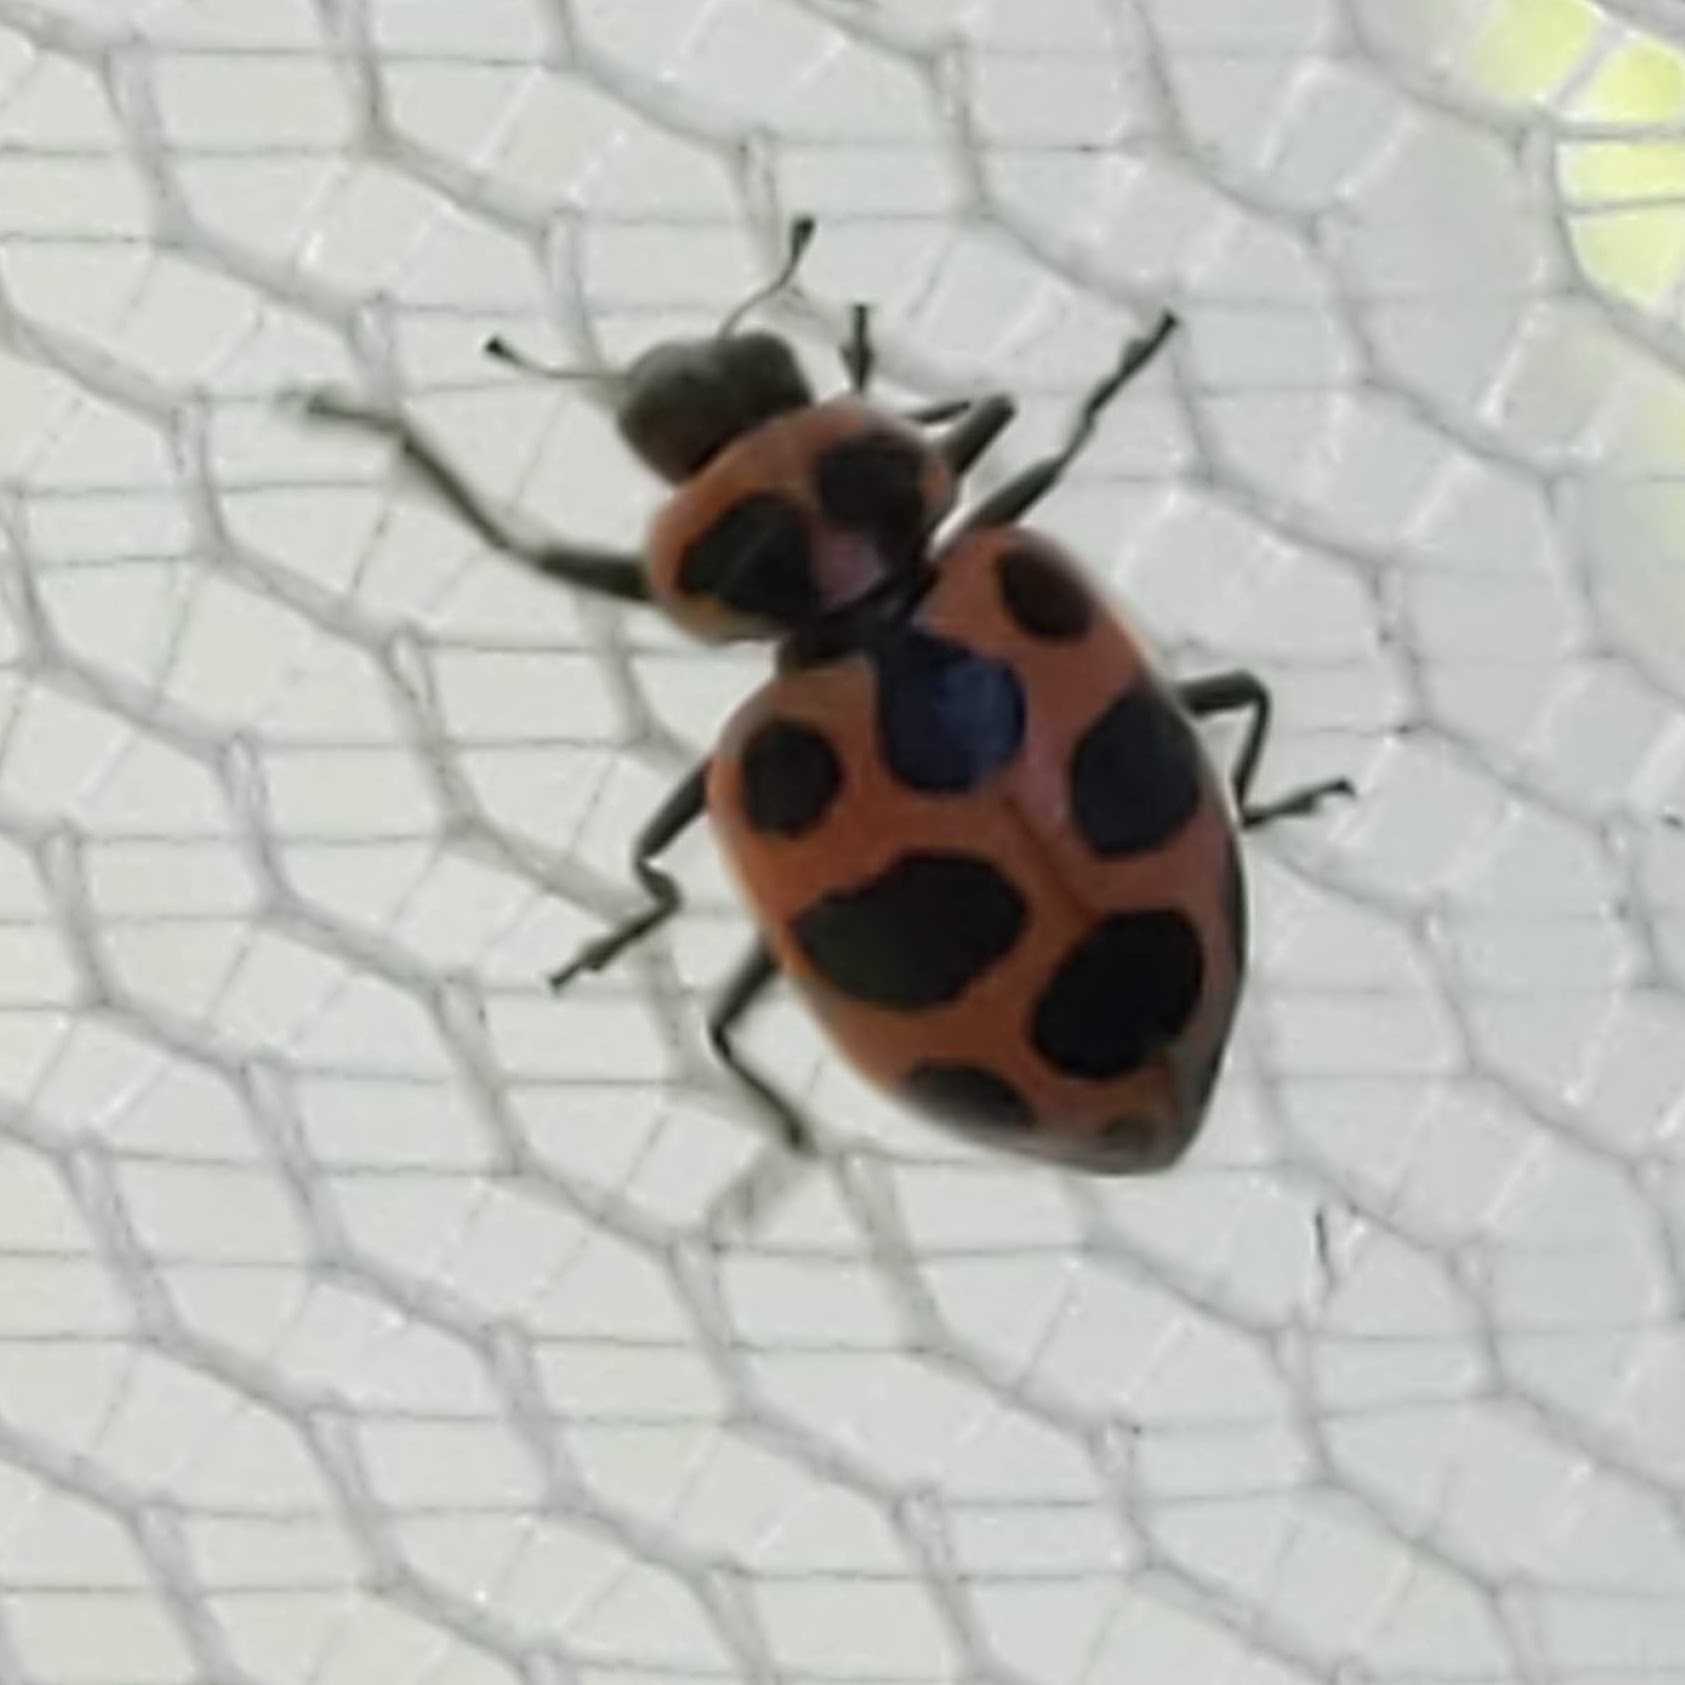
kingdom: Animalia
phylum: Arthropoda
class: Insecta
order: Coleoptera
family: Coccinellidae
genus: Coleomegilla
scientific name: Coleomegilla maculata
